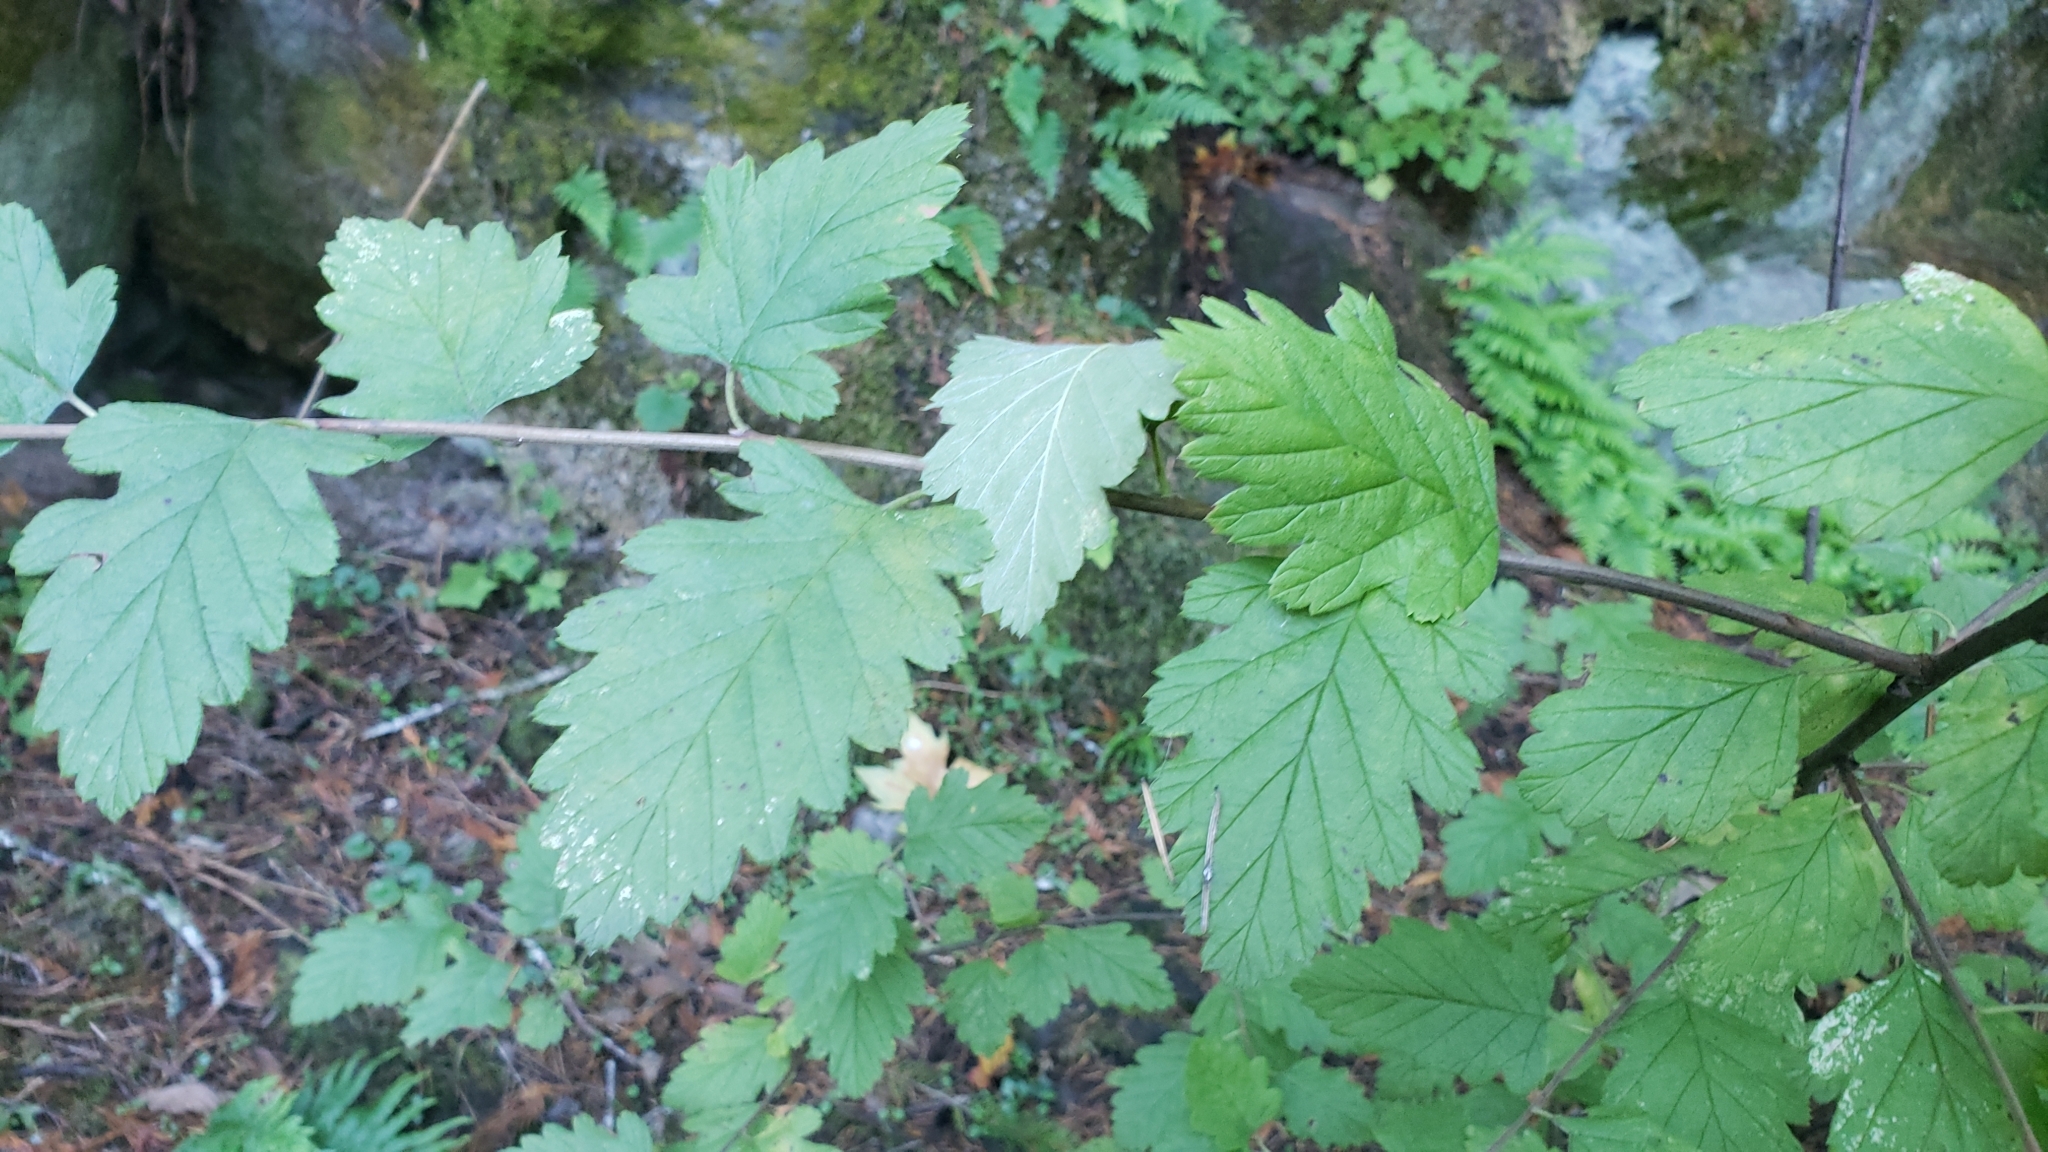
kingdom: Plantae
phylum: Tracheophyta
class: Magnoliopsida
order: Rosales
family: Rosaceae
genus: Holodiscus
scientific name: Holodiscus discolor
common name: Oceanspray
